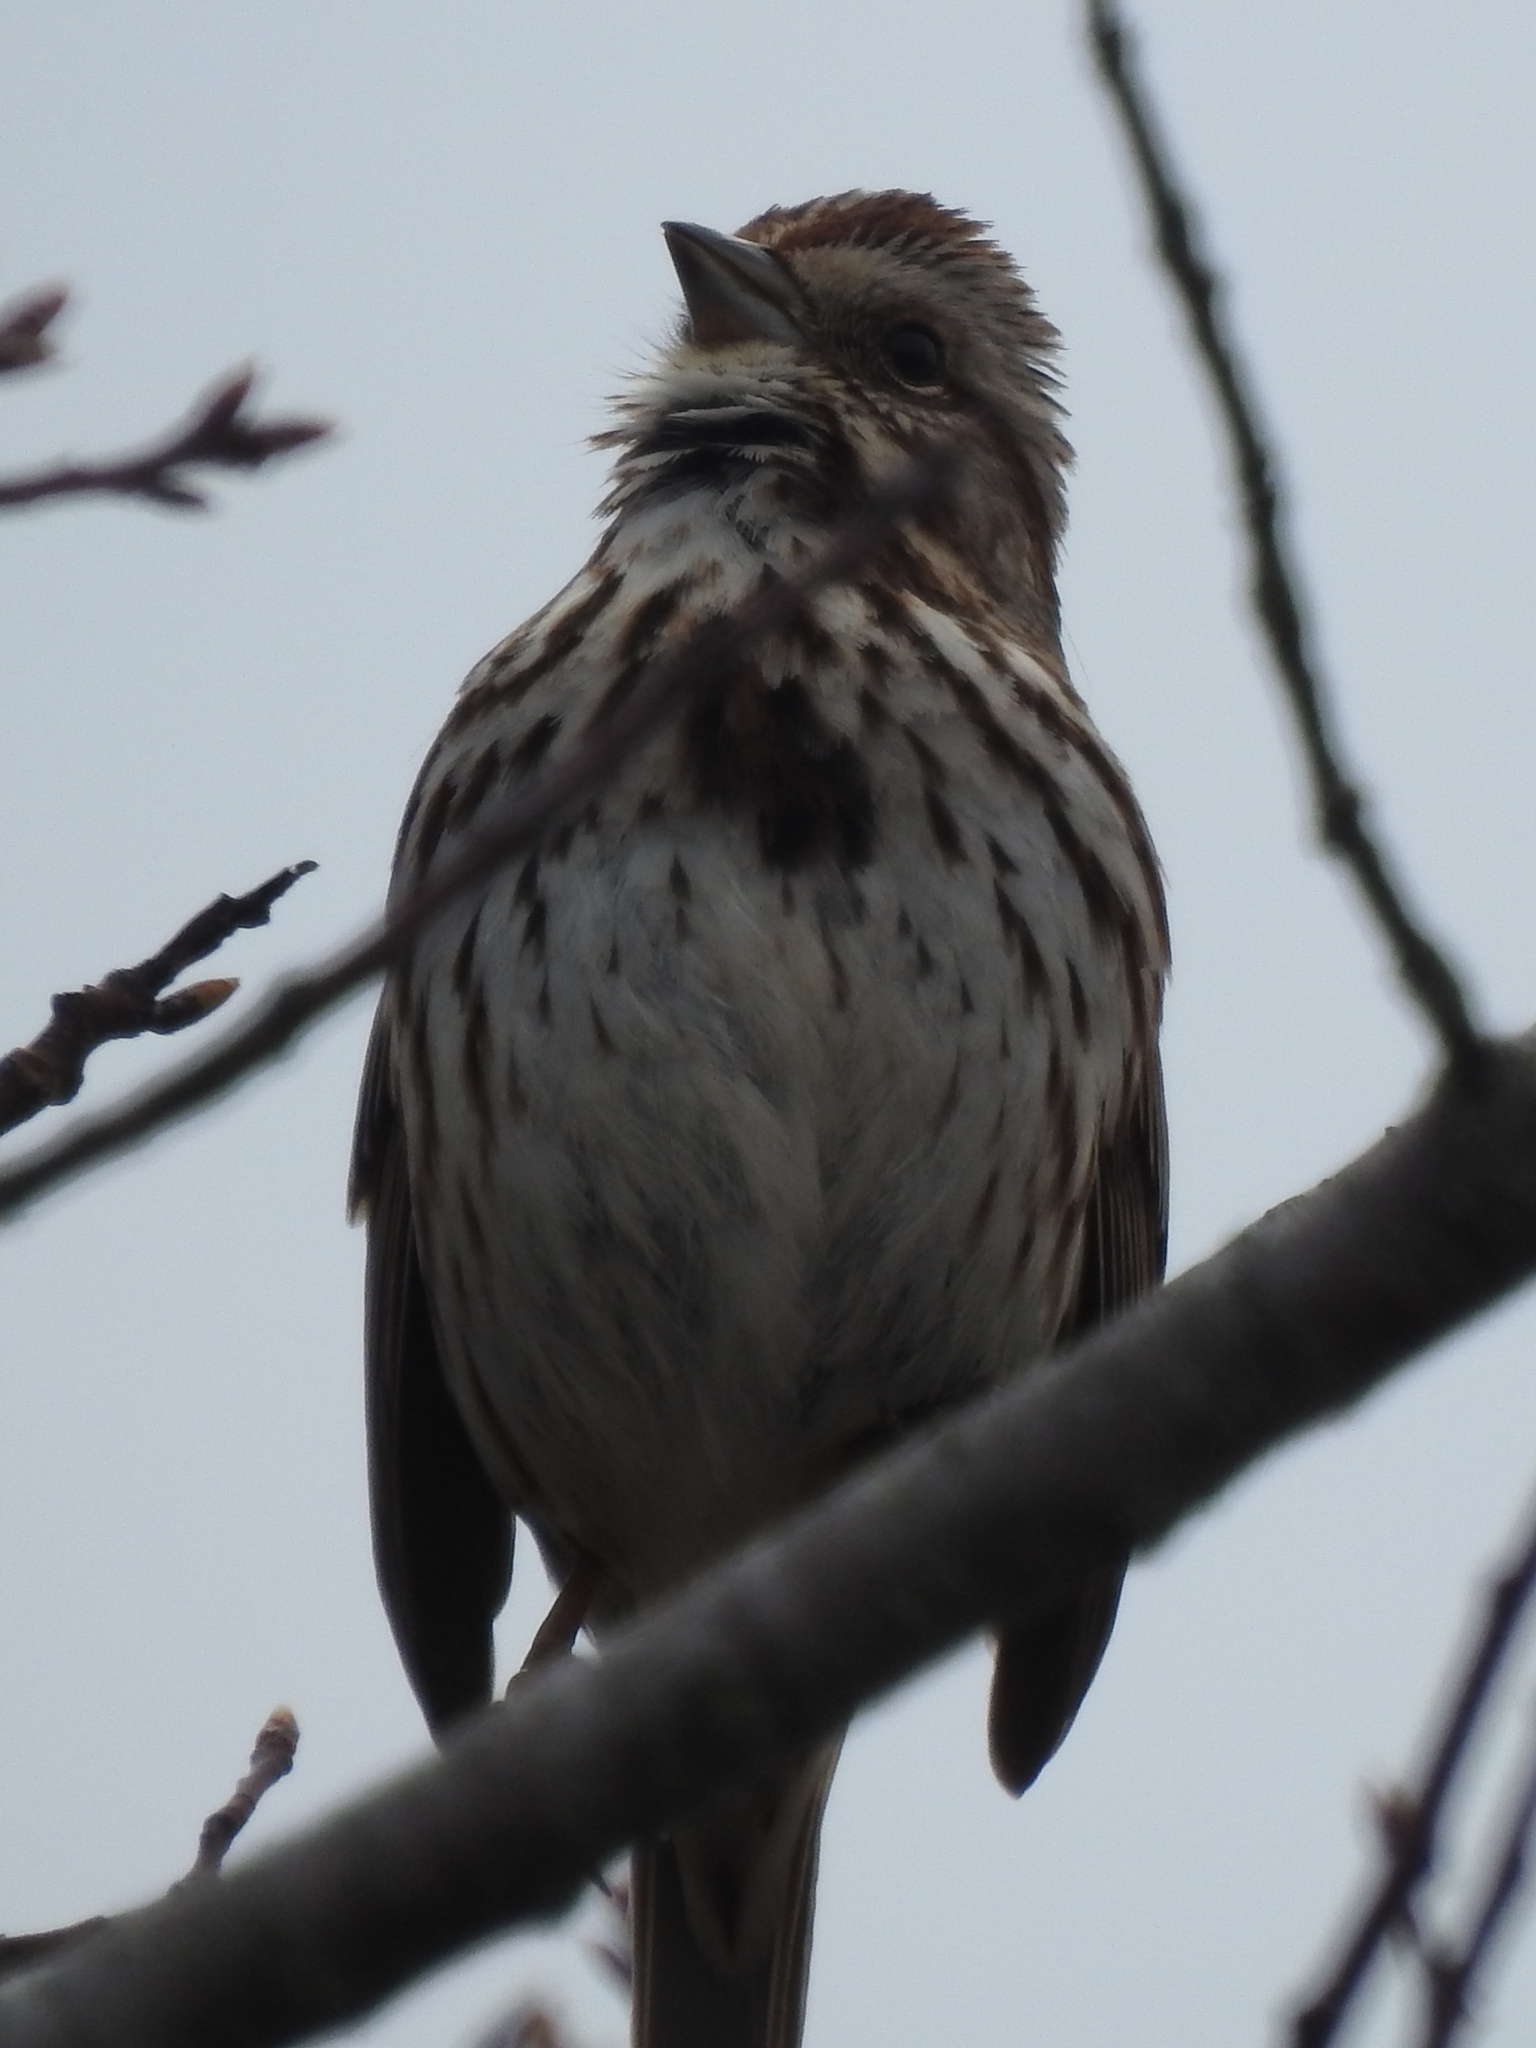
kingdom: Animalia
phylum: Chordata
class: Aves
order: Passeriformes
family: Passerellidae
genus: Melospiza
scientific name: Melospiza melodia
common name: Song sparrow
